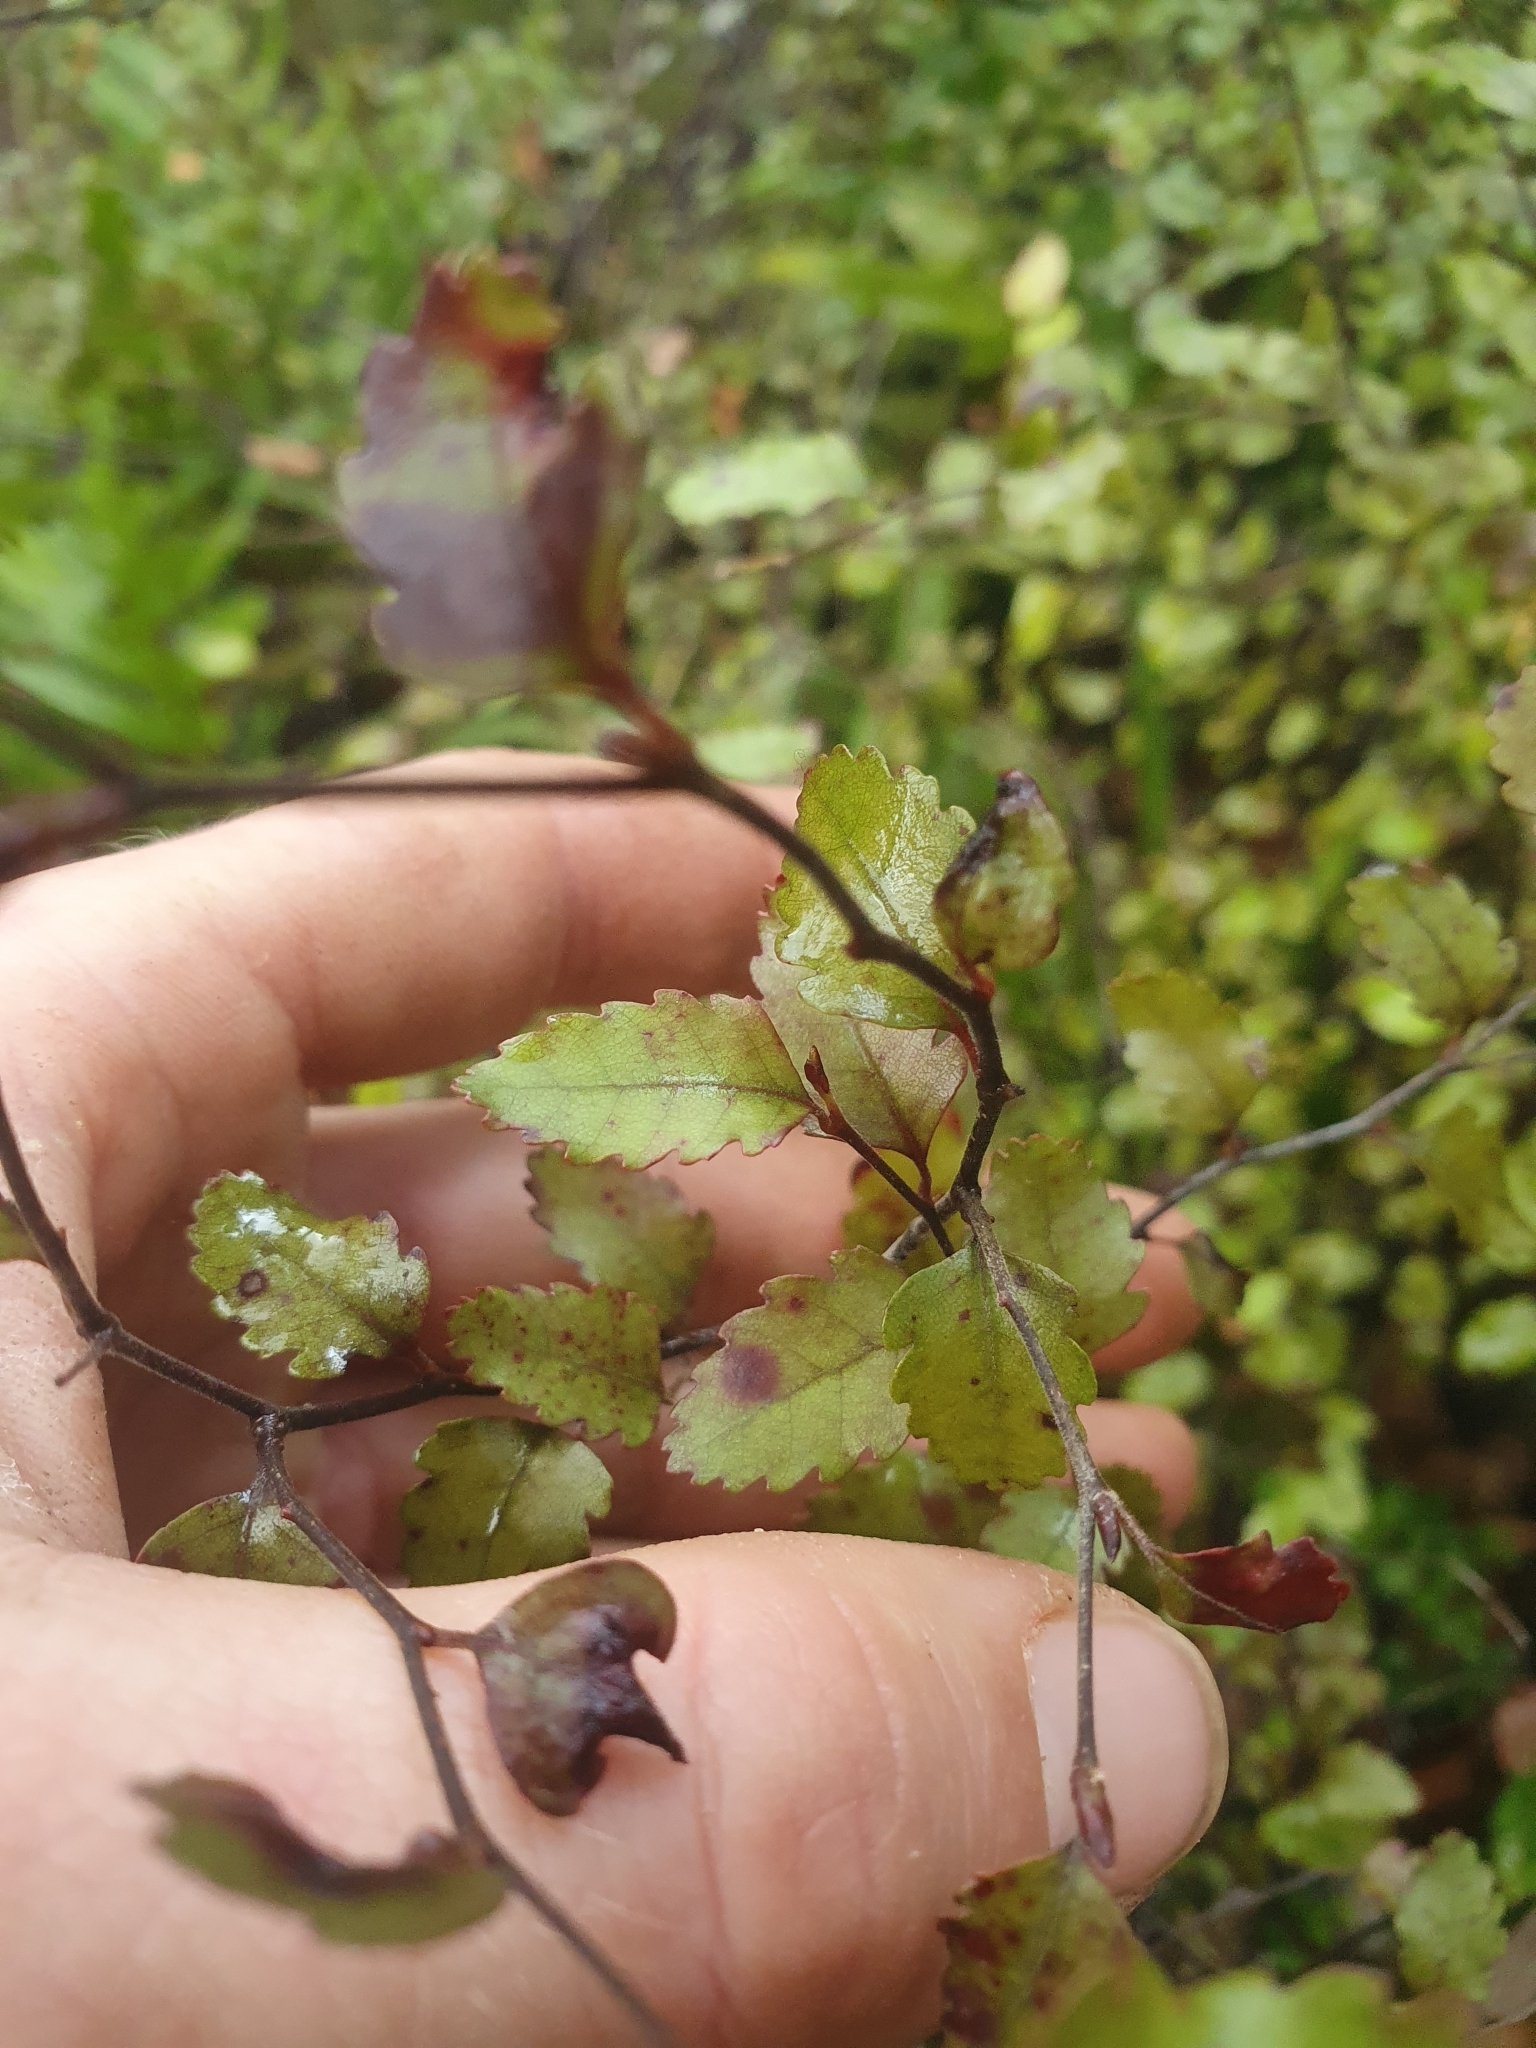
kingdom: Plantae
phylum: Tracheophyta
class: Magnoliopsida
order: Fagales
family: Nothofagaceae
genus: Nothofagus
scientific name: Nothofagus truncata
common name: Hard beech
